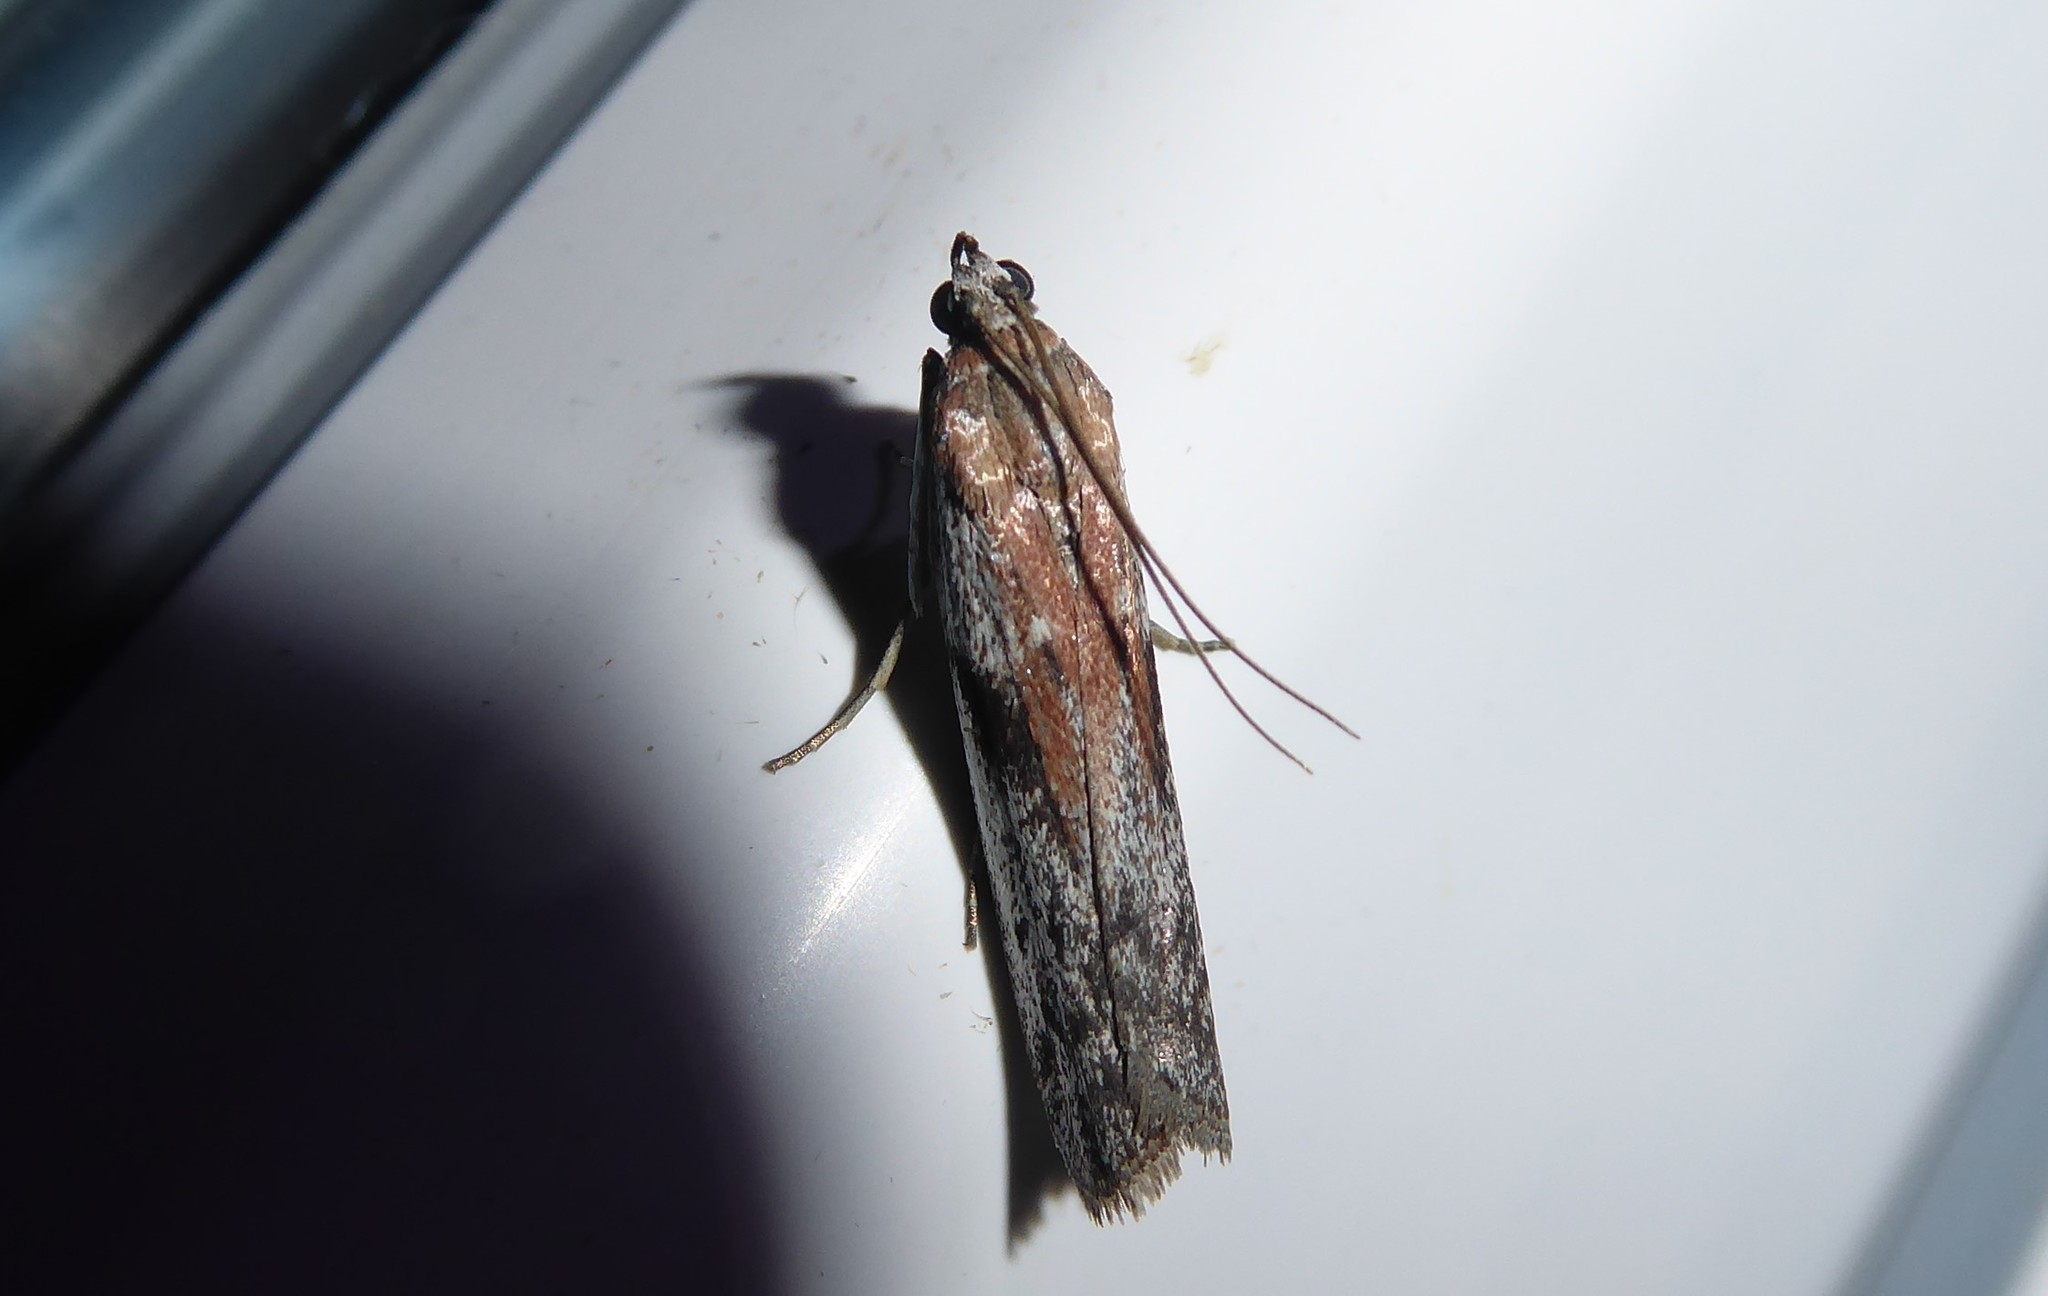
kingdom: Animalia
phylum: Arthropoda
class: Insecta
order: Lepidoptera
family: Pyralidae
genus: Patagoniodes
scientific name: Patagoniodes farinaria
